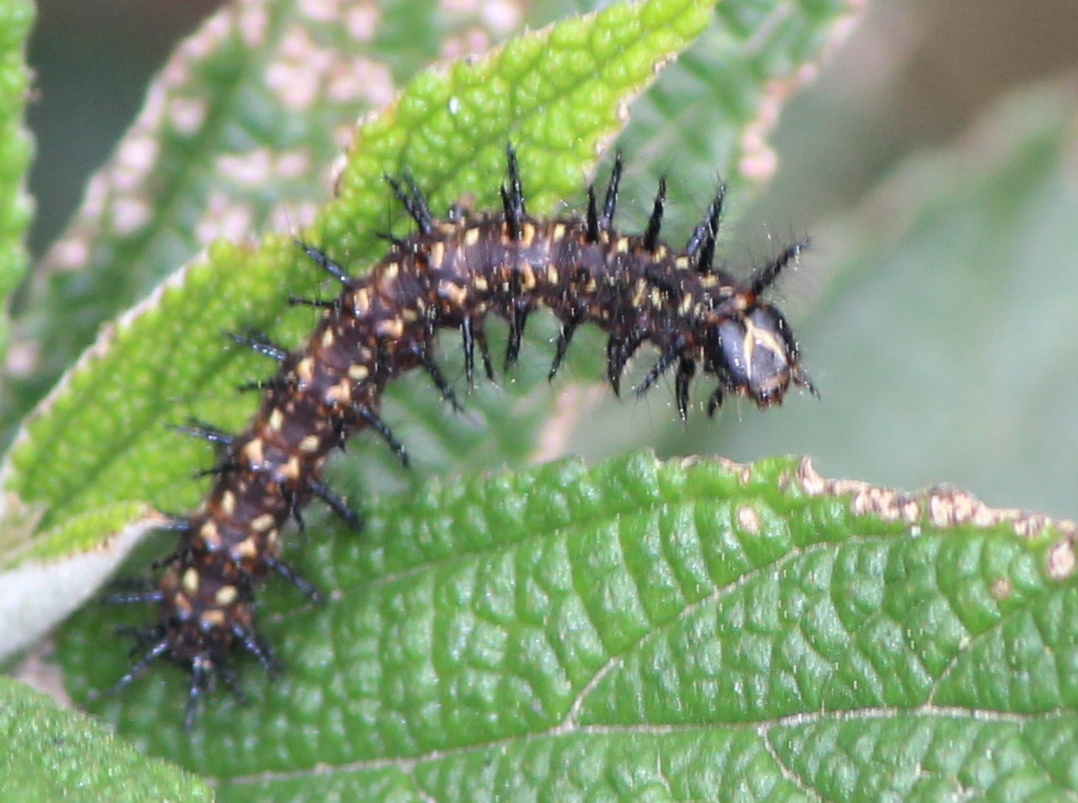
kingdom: Animalia
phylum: Arthropoda
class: Insecta
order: Lepidoptera
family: Nymphalidae
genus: Acraea
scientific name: Acraea Telchinia issoria
